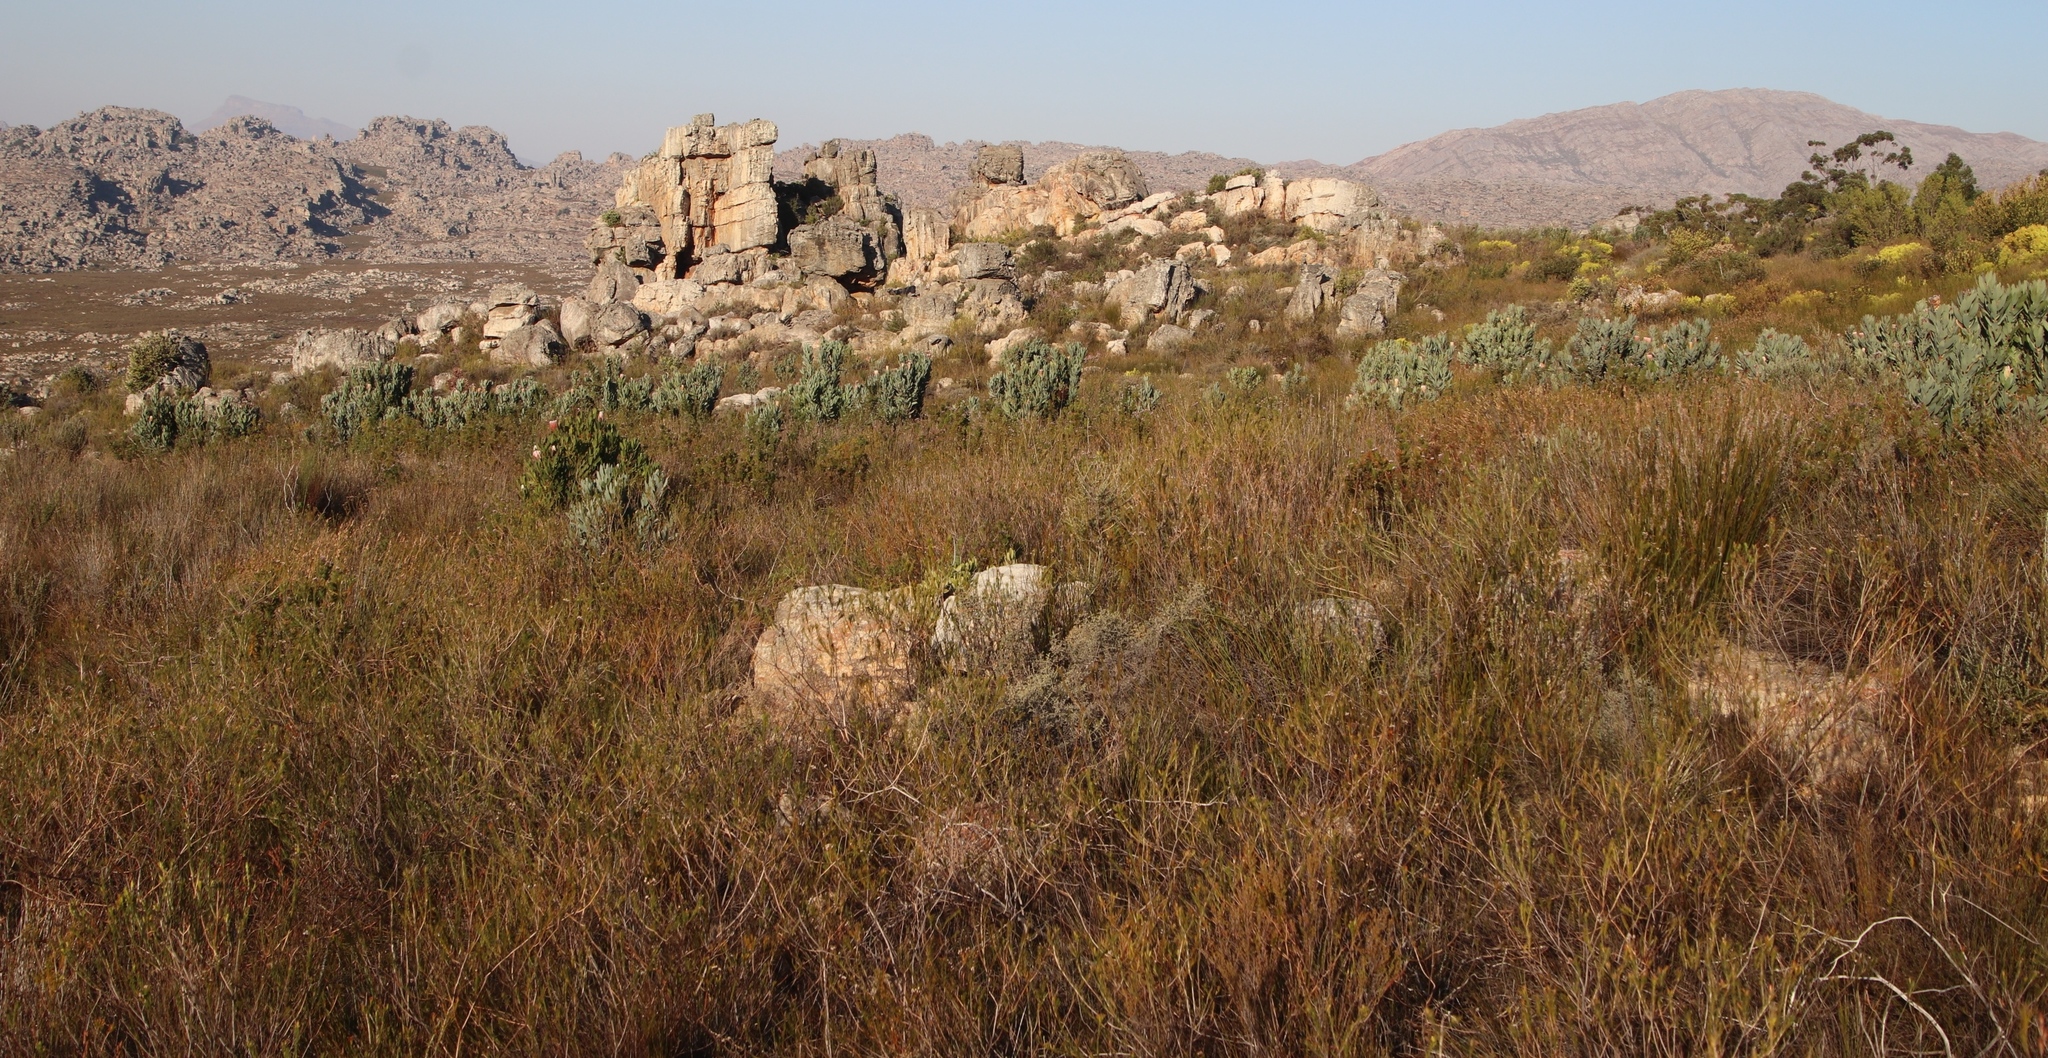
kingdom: Plantae
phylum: Tracheophyta
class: Magnoliopsida
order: Proteales
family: Proteaceae
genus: Protea
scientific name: Protea laurifolia
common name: Grey-leaf sugarbsh
